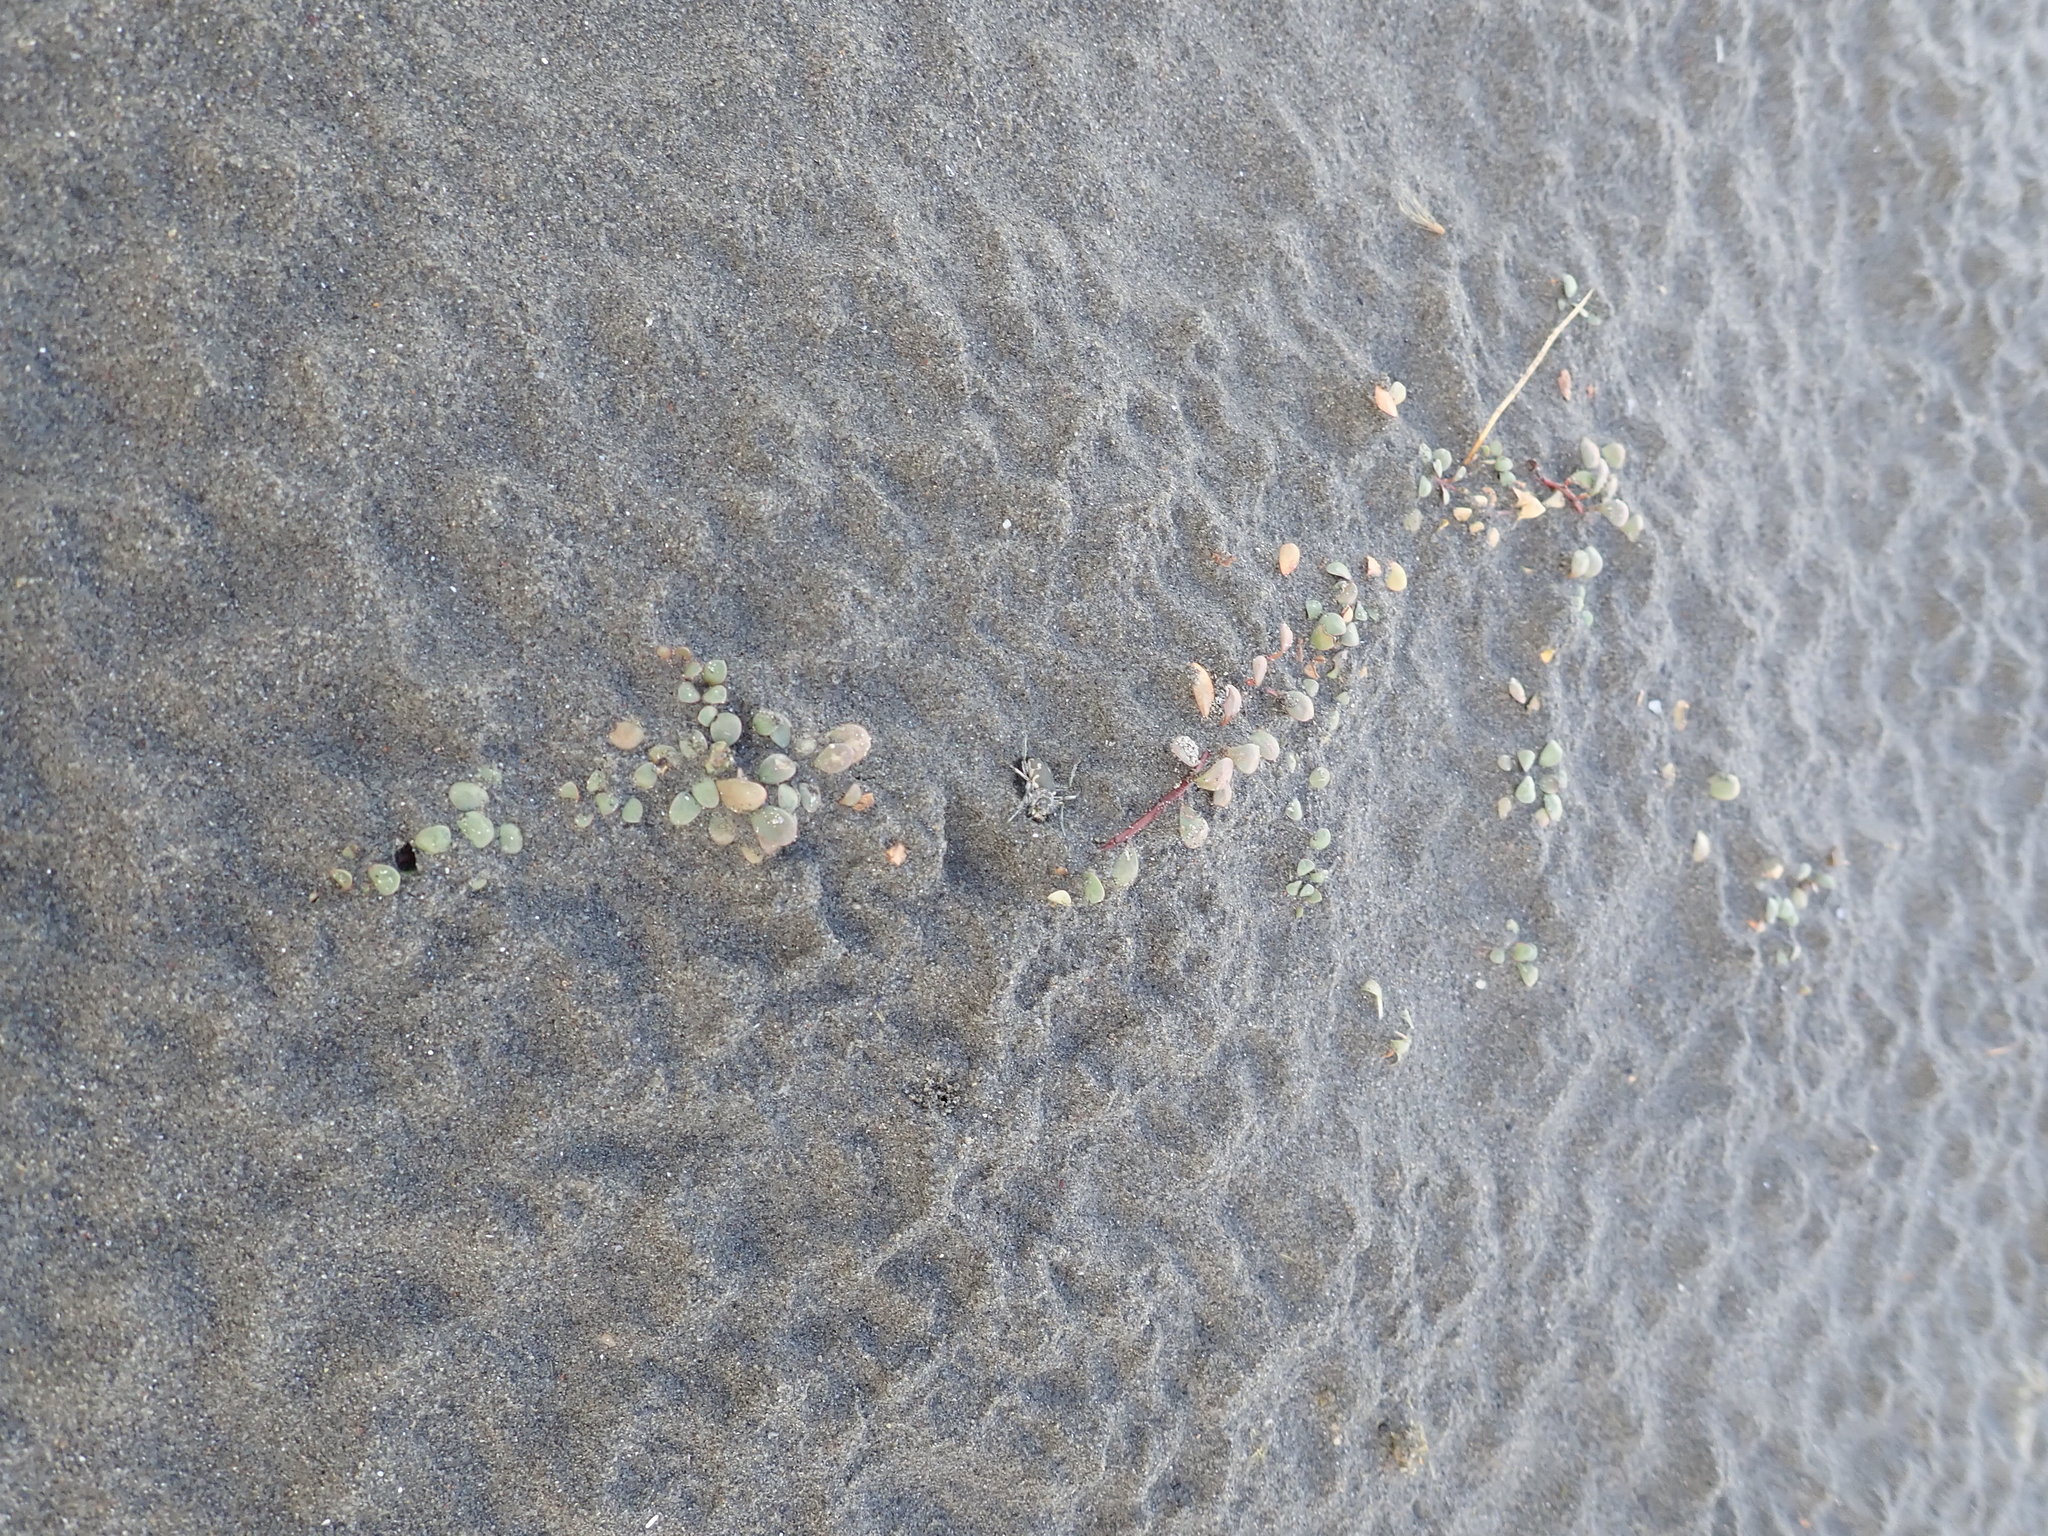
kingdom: Plantae
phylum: Tracheophyta
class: Magnoliopsida
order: Ericales
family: Primulaceae
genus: Samolus
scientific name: Samolus repens
